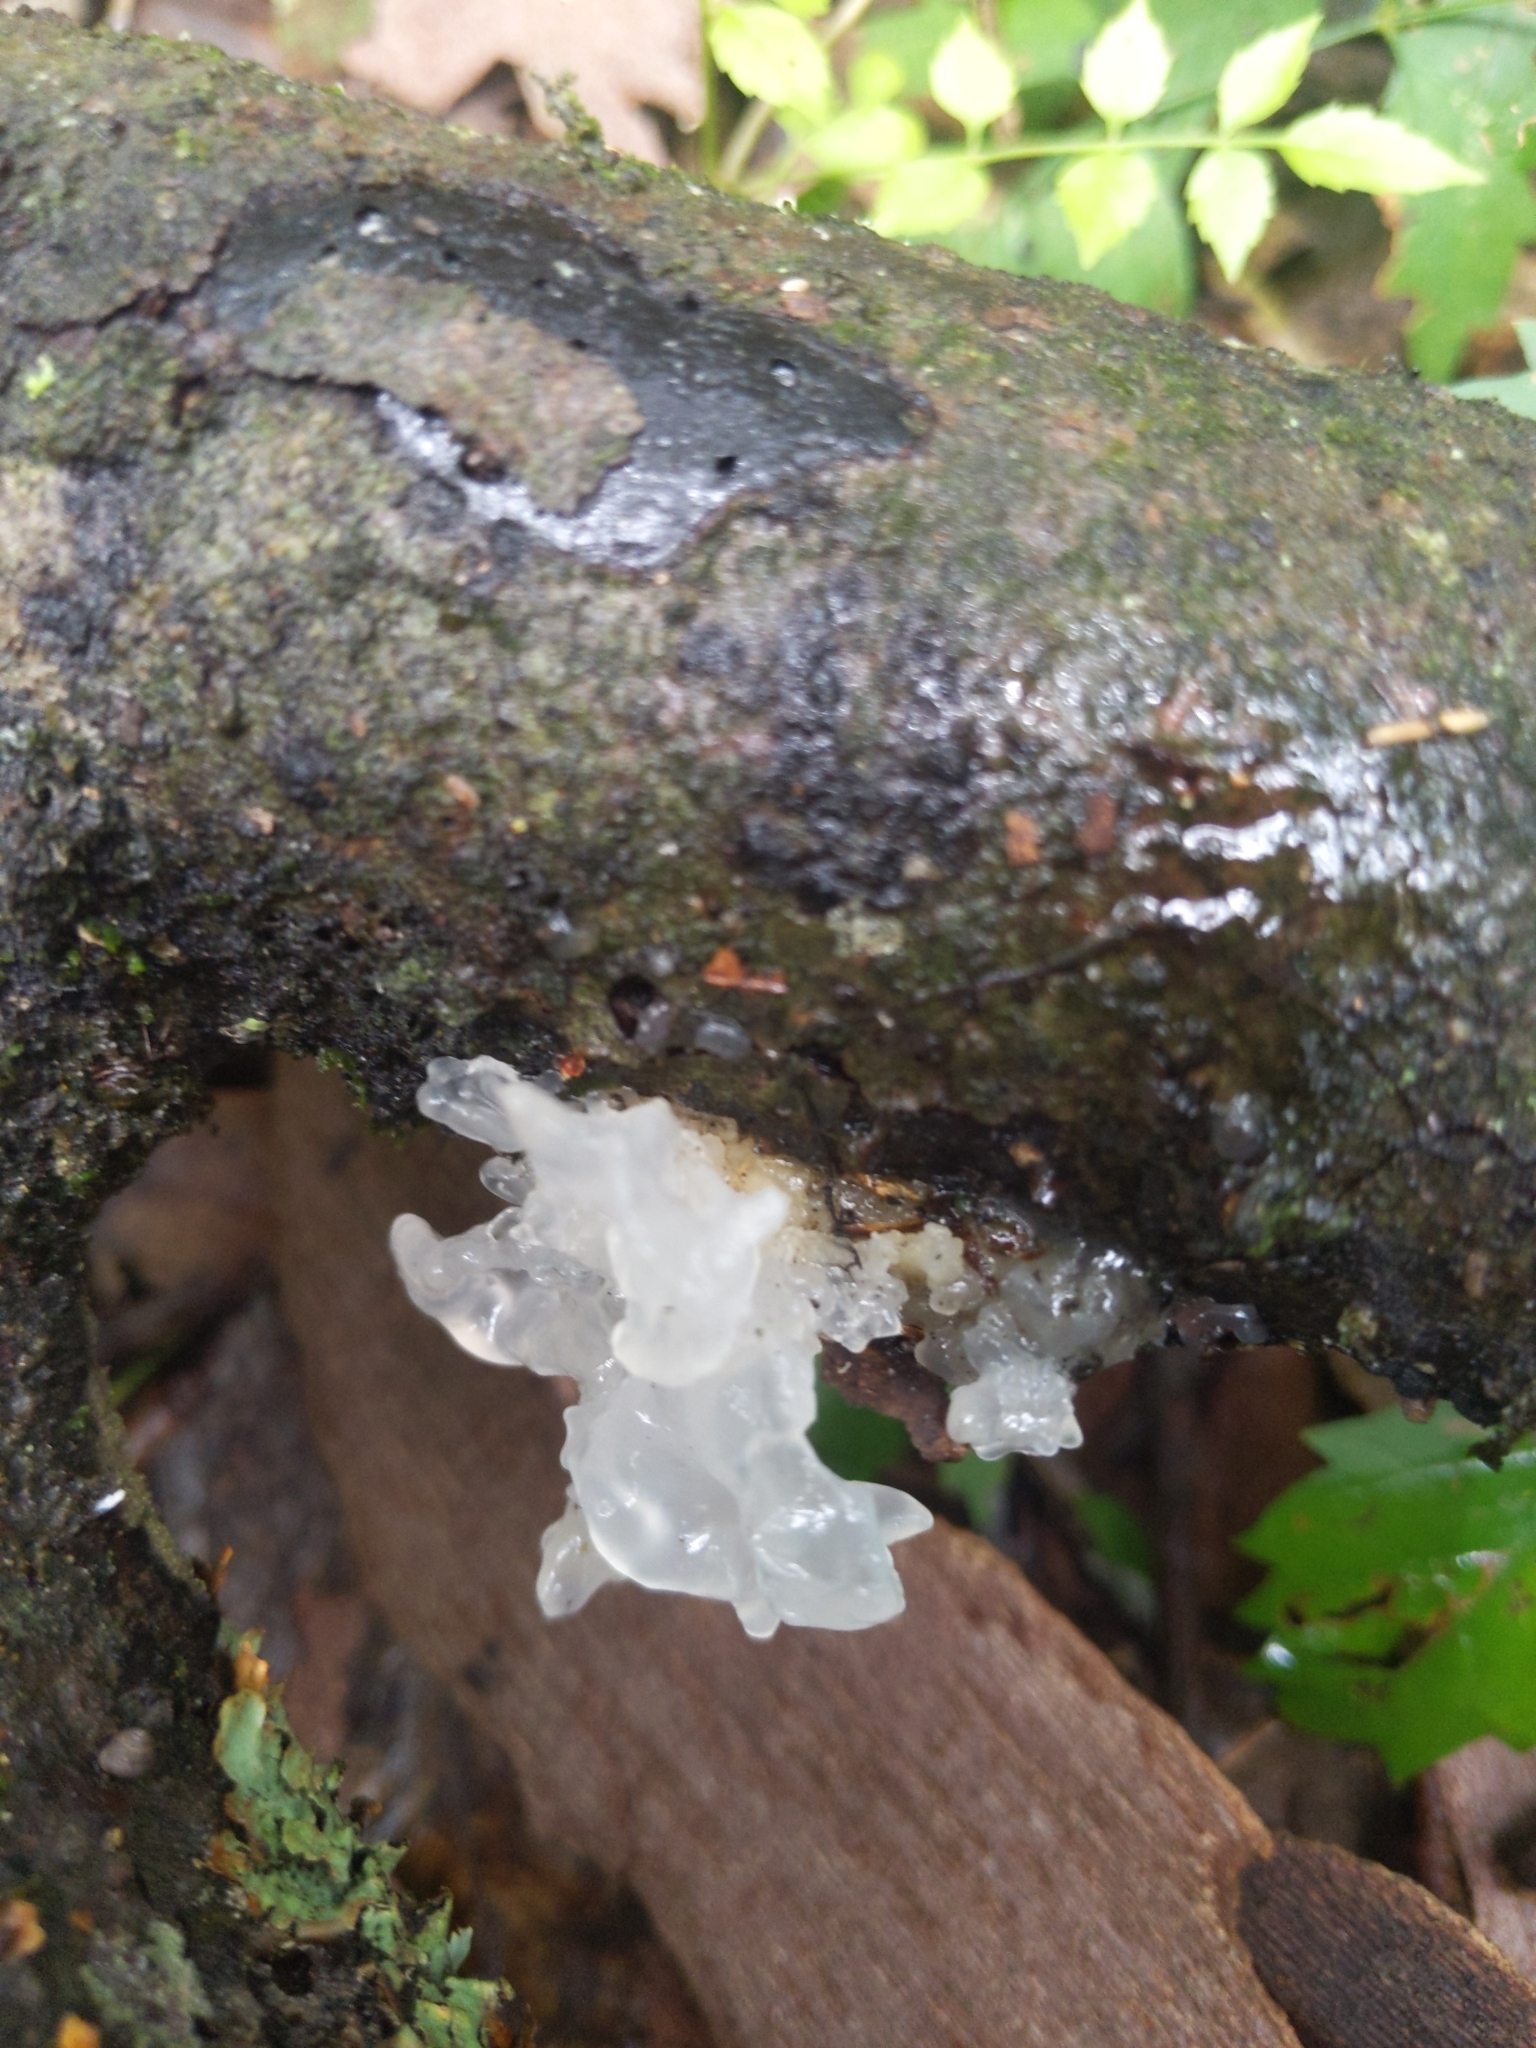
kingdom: Fungi
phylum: Basidiomycota
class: Tremellomycetes
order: Tremellales
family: Tremellaceae
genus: Tremella
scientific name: Tremella fuciformis
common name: Snow fungus
